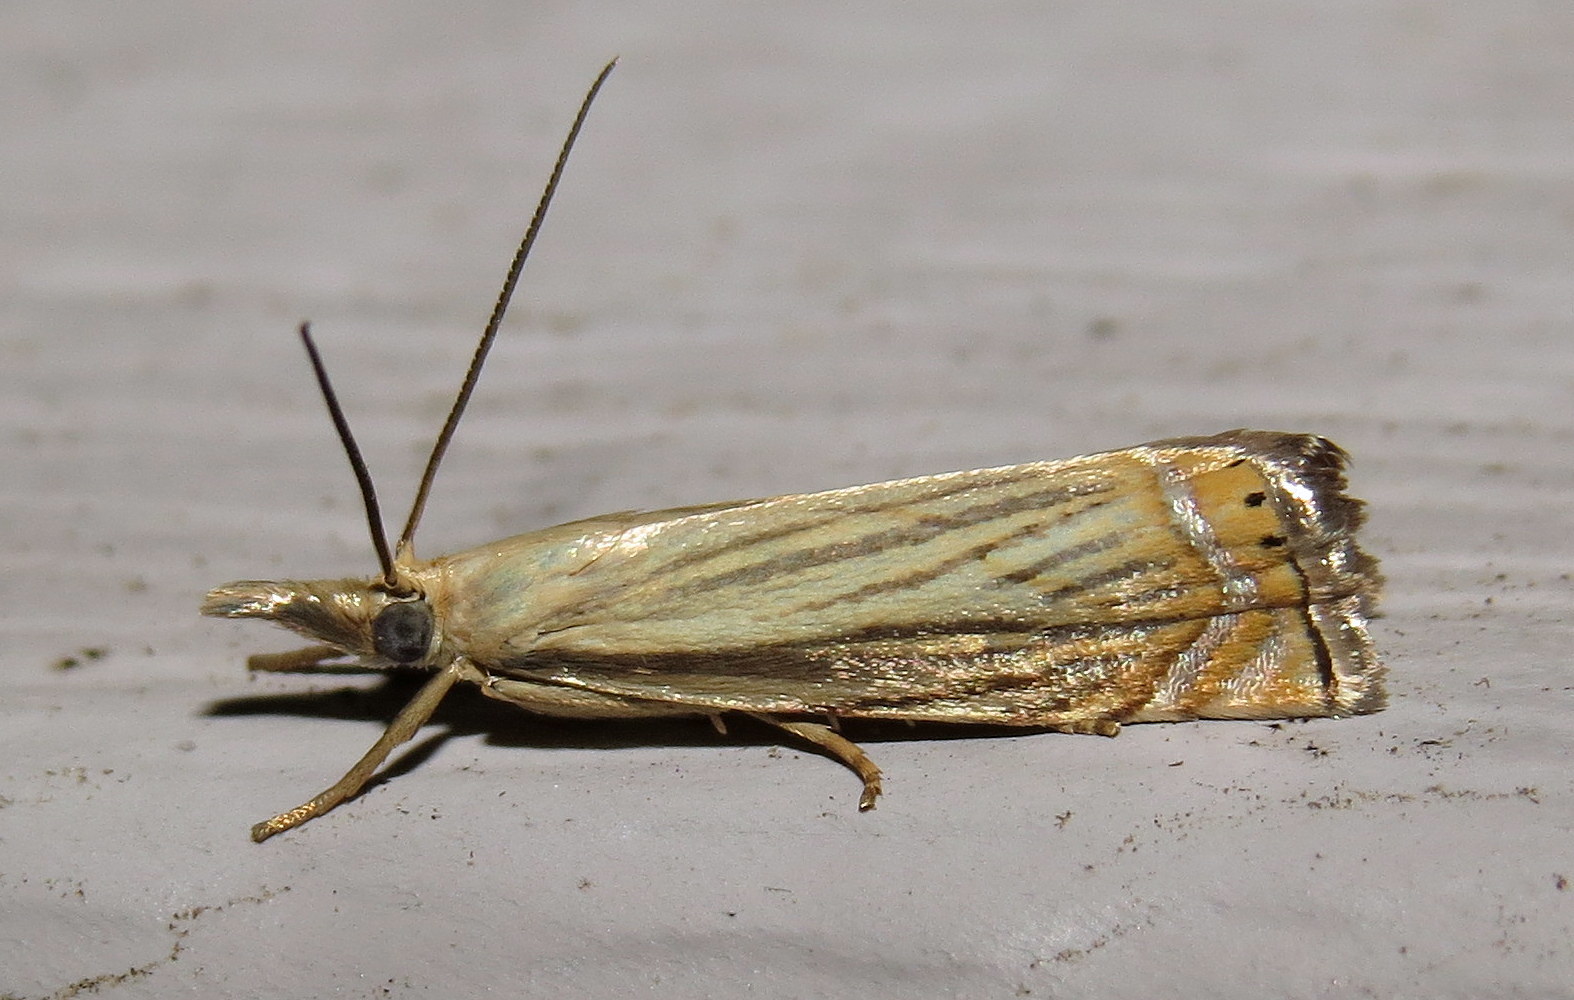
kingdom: Animalia
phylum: Arthropoda
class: Insecta
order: Lepidoptera
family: Crambidae
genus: Chrysoteuchia
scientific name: Chrysoteuchia topiarius
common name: Topiary grass-veneer
